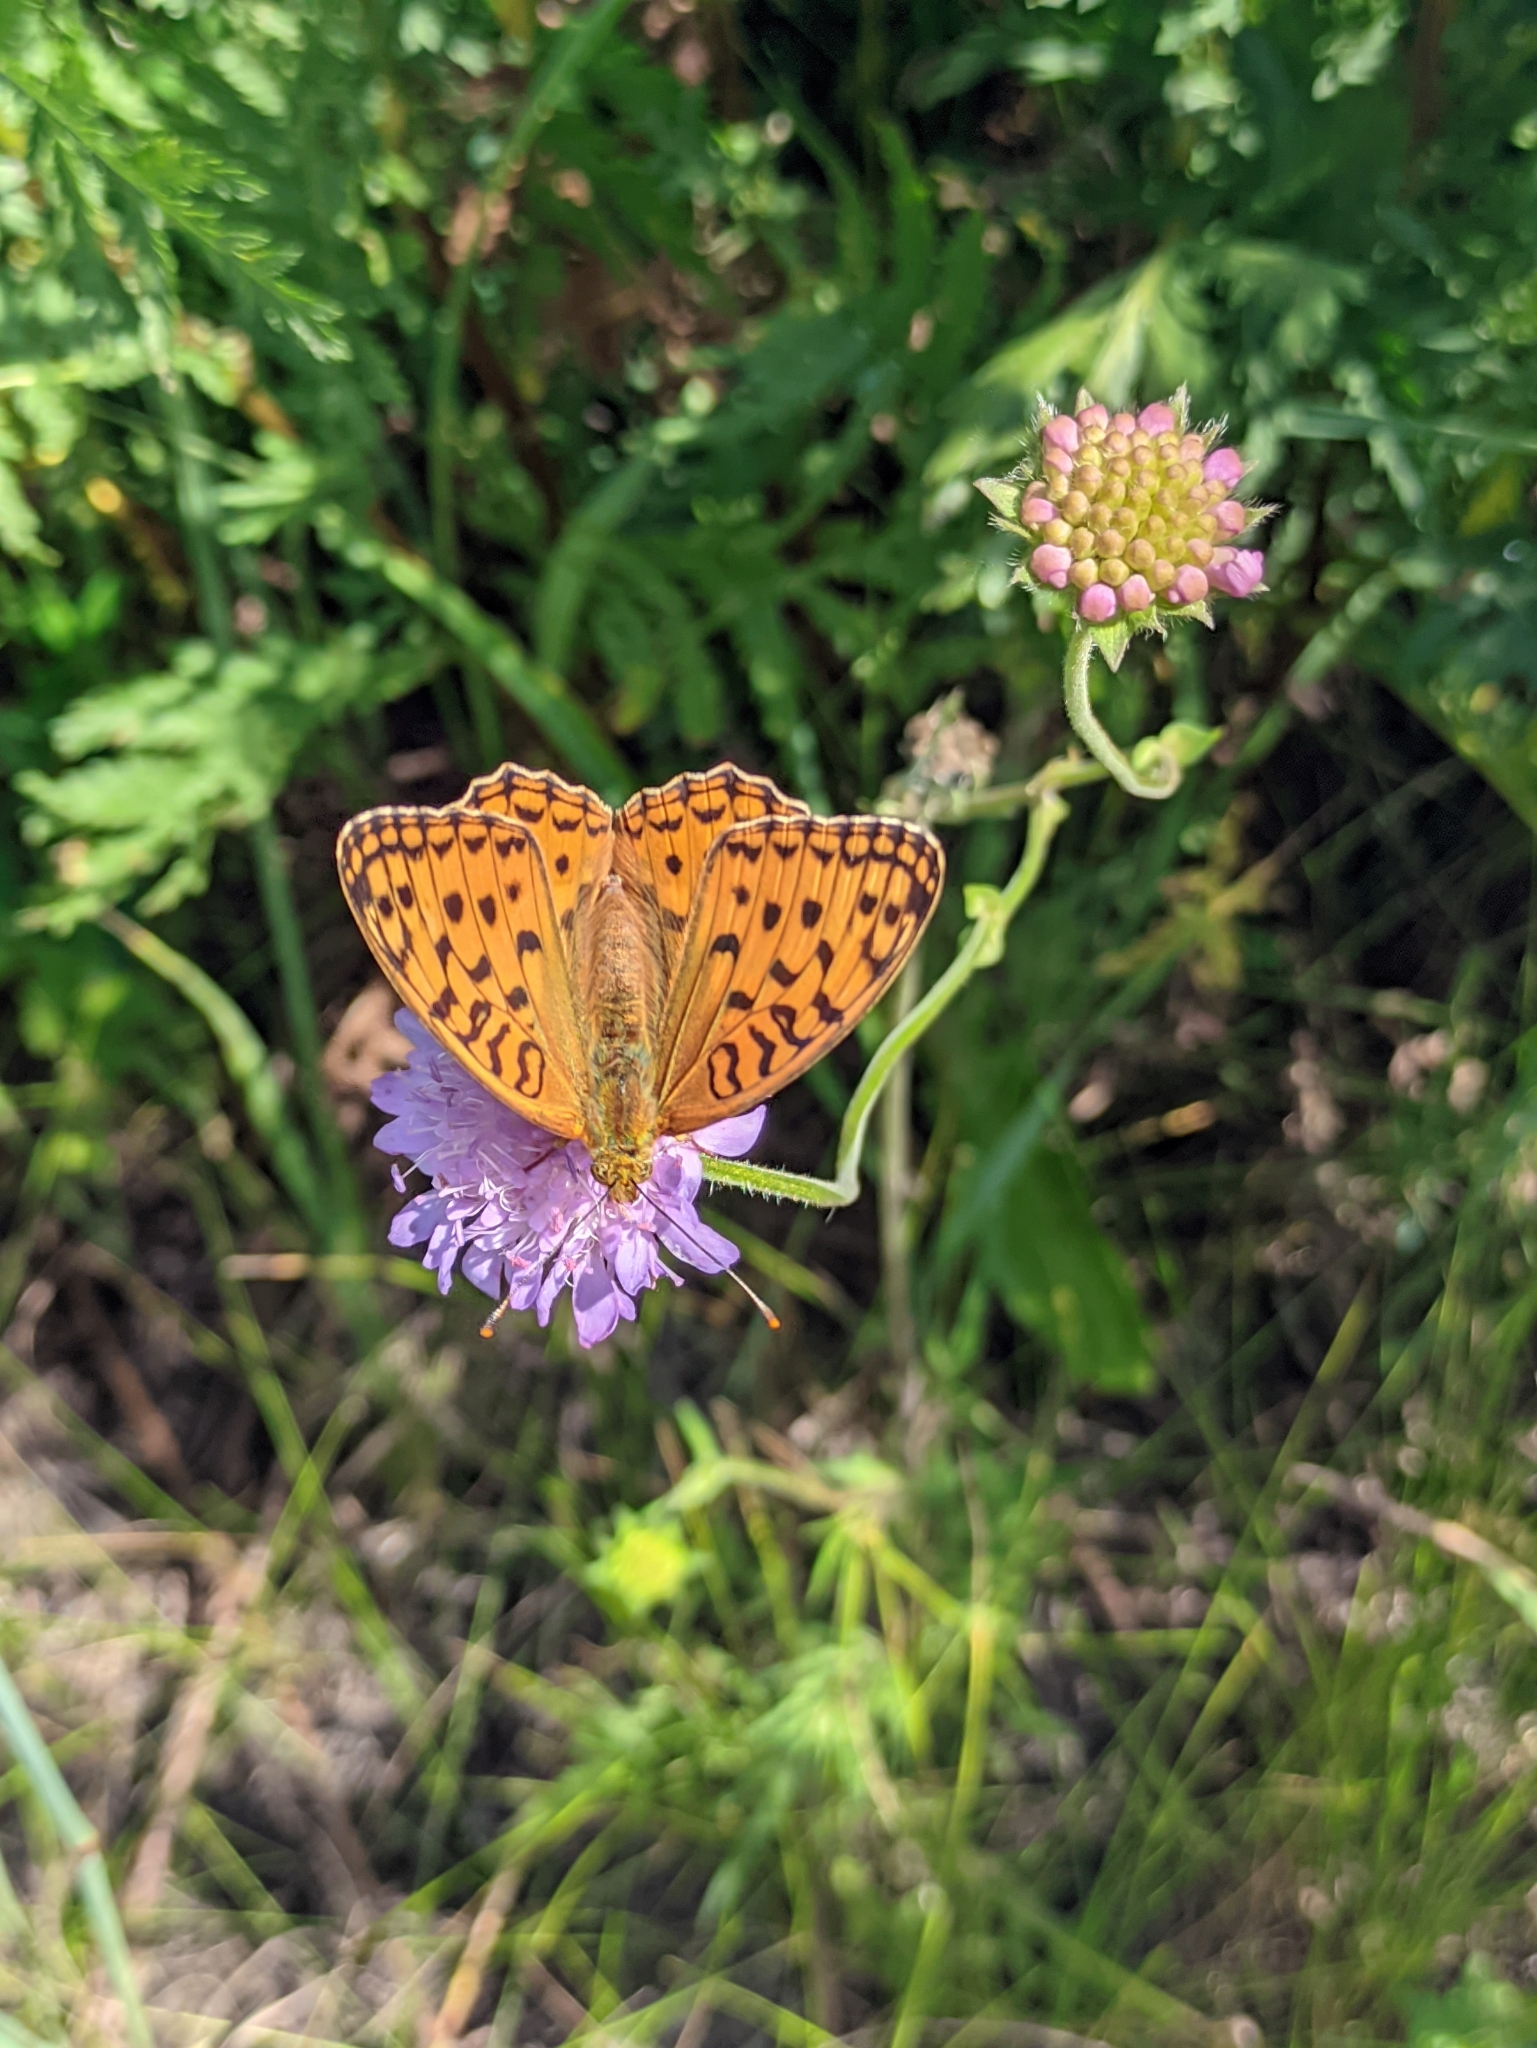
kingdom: Animalia
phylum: Arthropoda
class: Insecta
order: Lepidoptera
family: Nymphalidae
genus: Fabriciana
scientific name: Fabriciana adippe
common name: High brown fritillary
